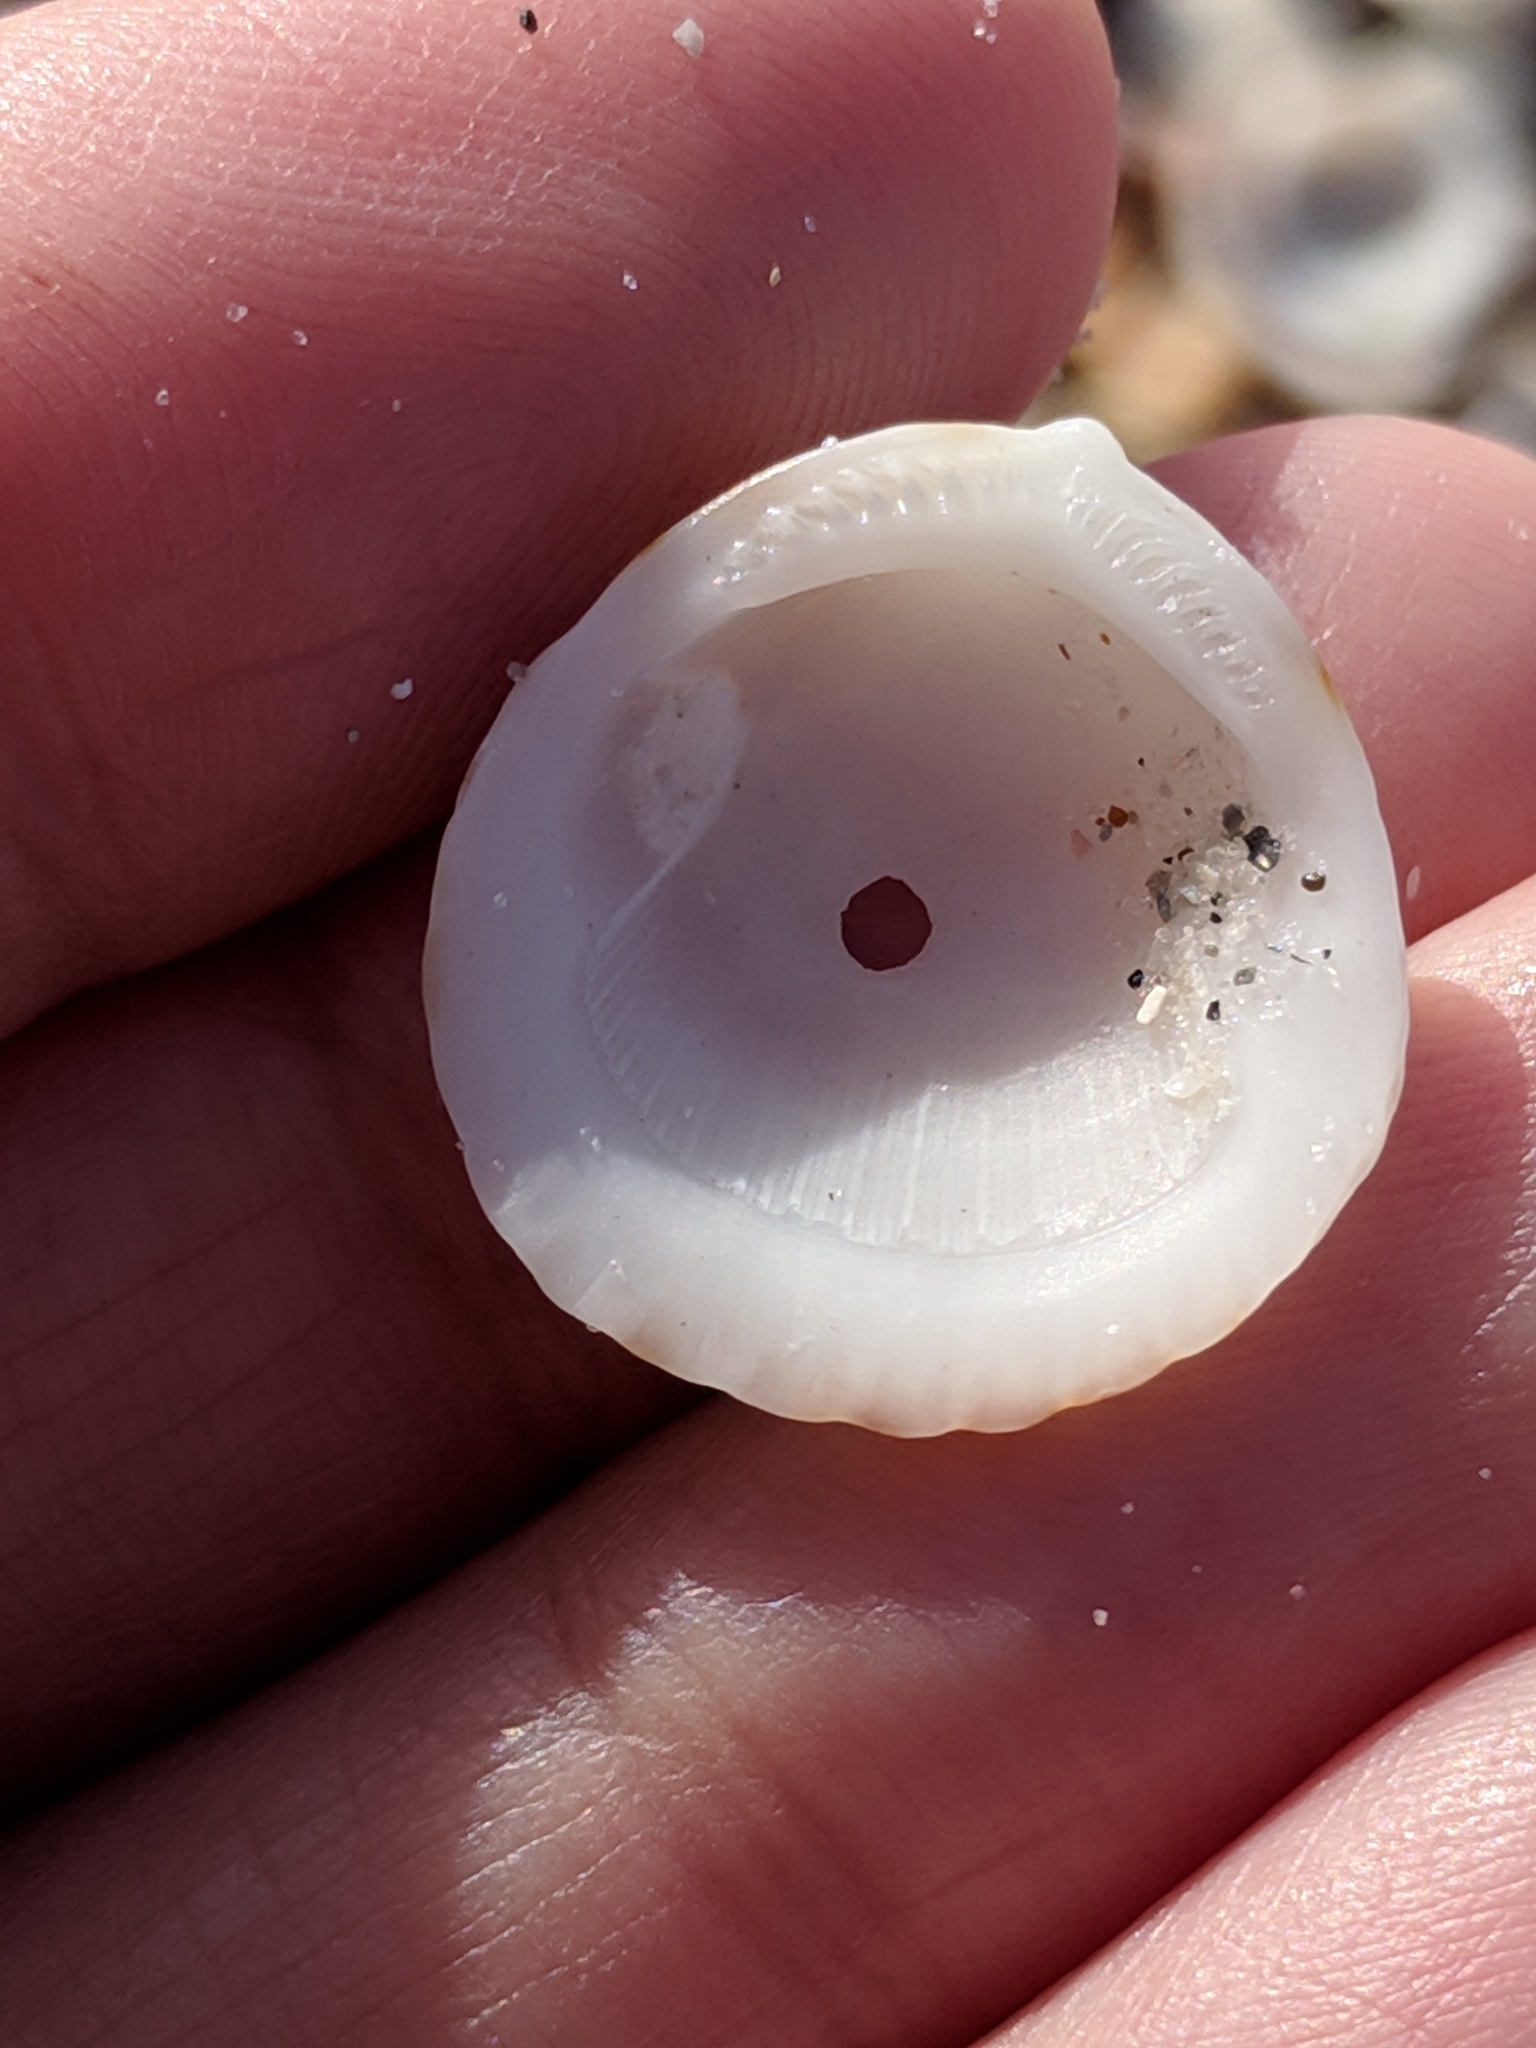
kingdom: Animalia
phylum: Mollusca
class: Bivalvia
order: Arcida
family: Glycymerididae
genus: Tucetona
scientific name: Tucetona pectinata
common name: Comb bittersweet
